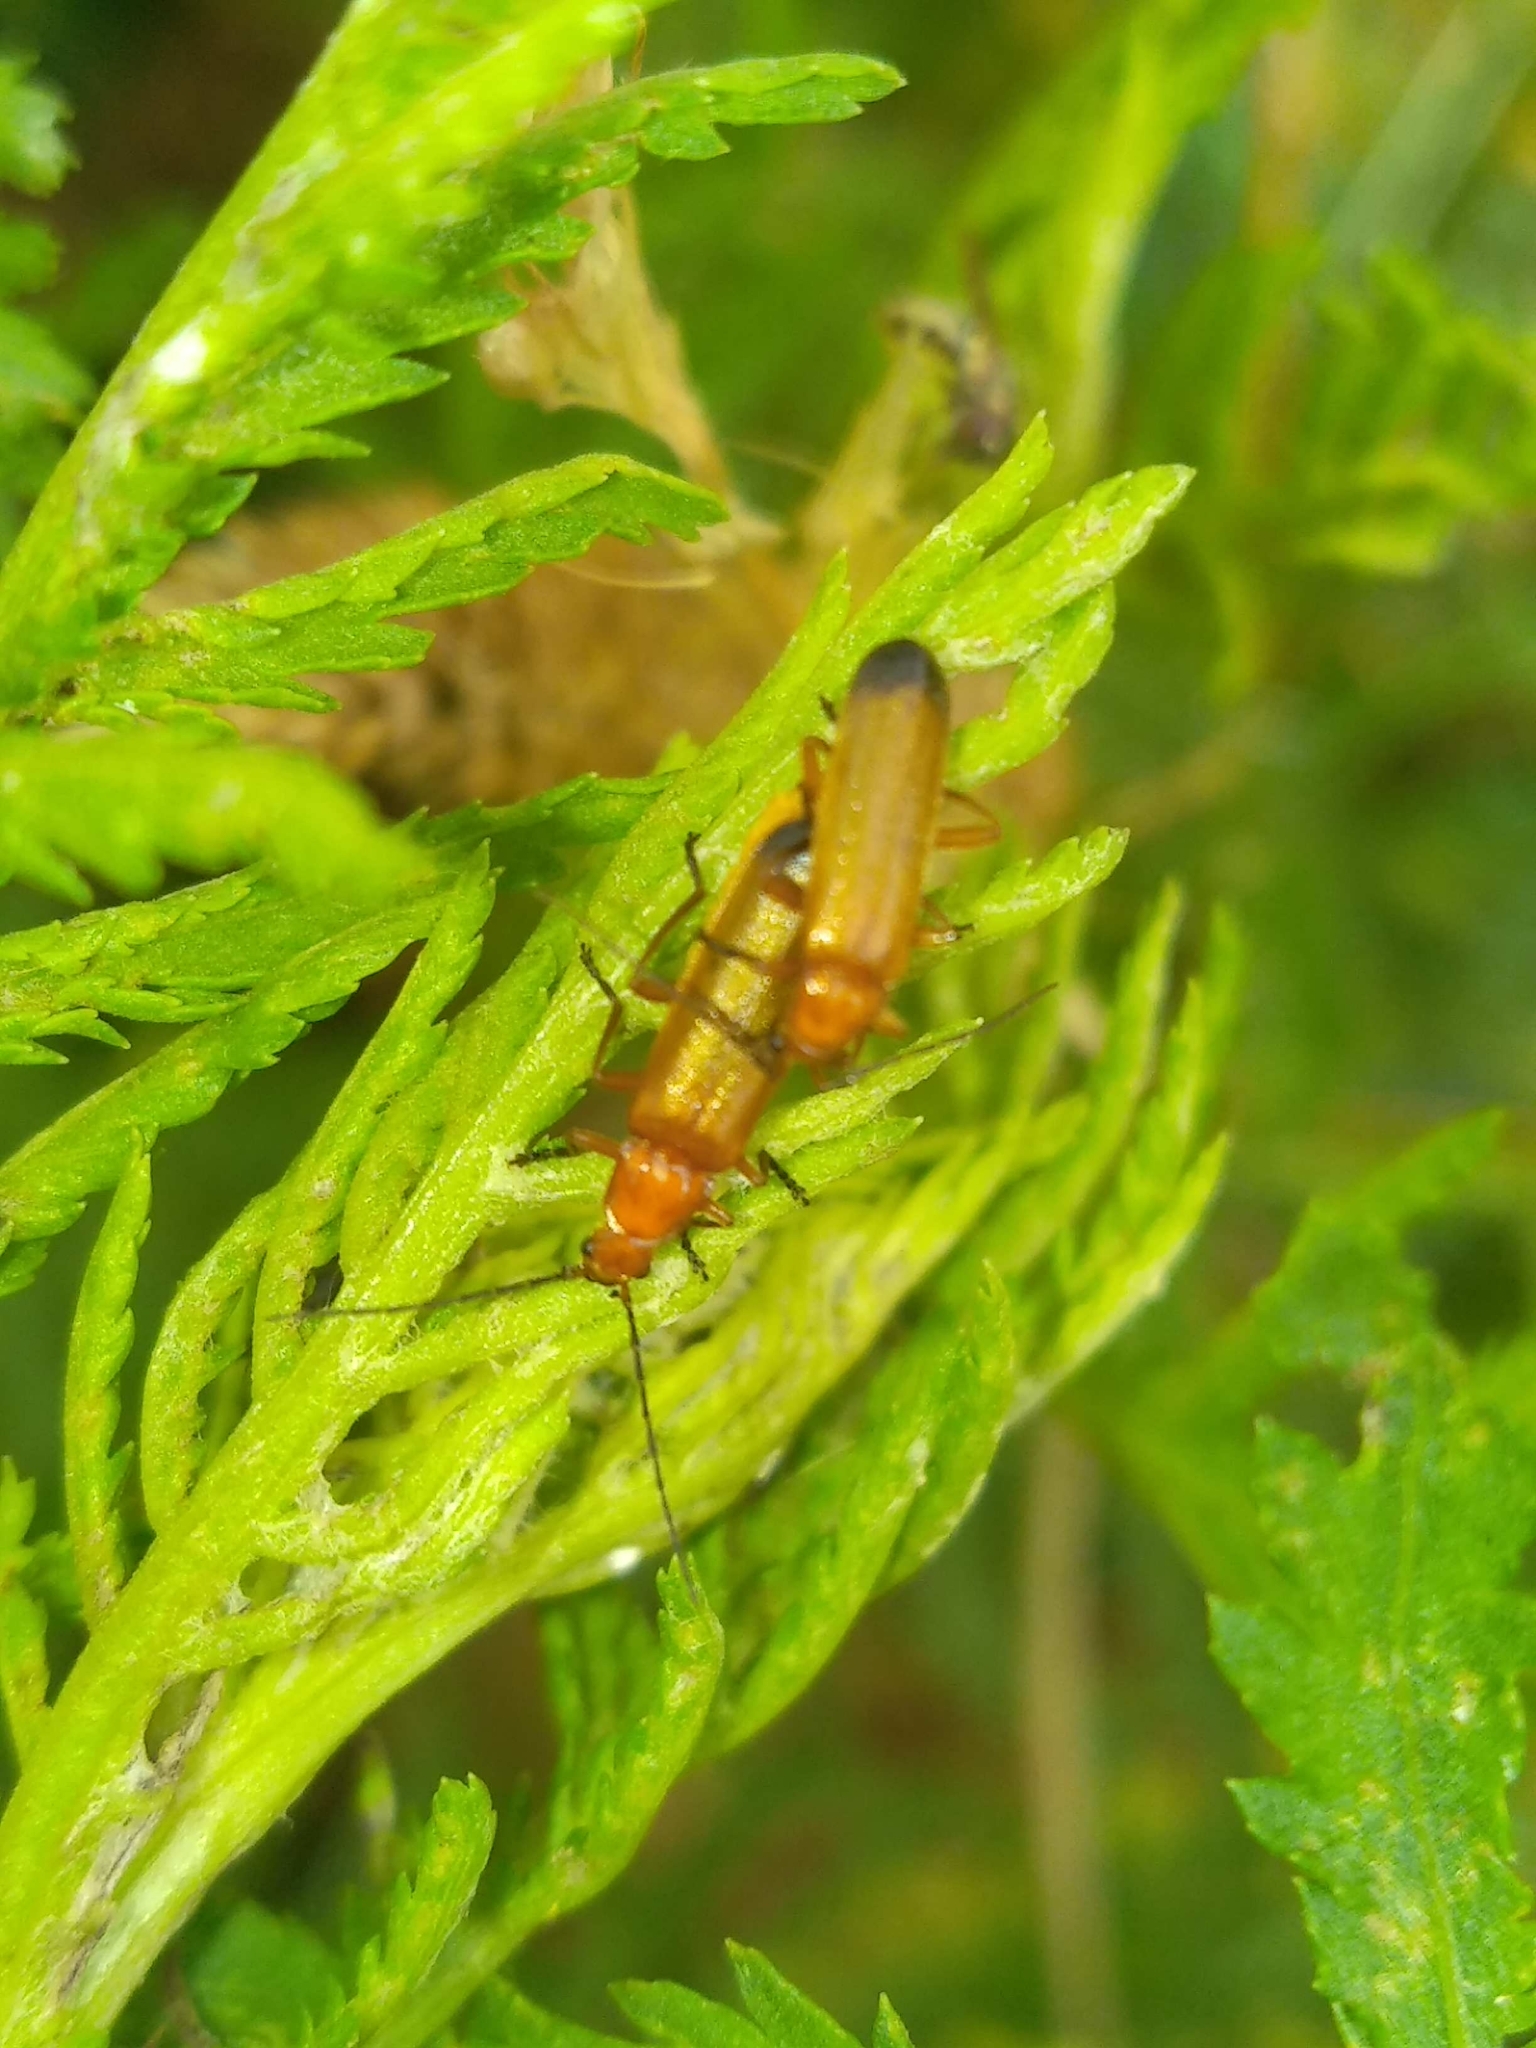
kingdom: Animalia
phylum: Arthropoda
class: Insecta
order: Coleoptera
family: Cantharidae
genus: Rhagonycha
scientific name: Rhagonycha fulva
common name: Common red soldier beetle
